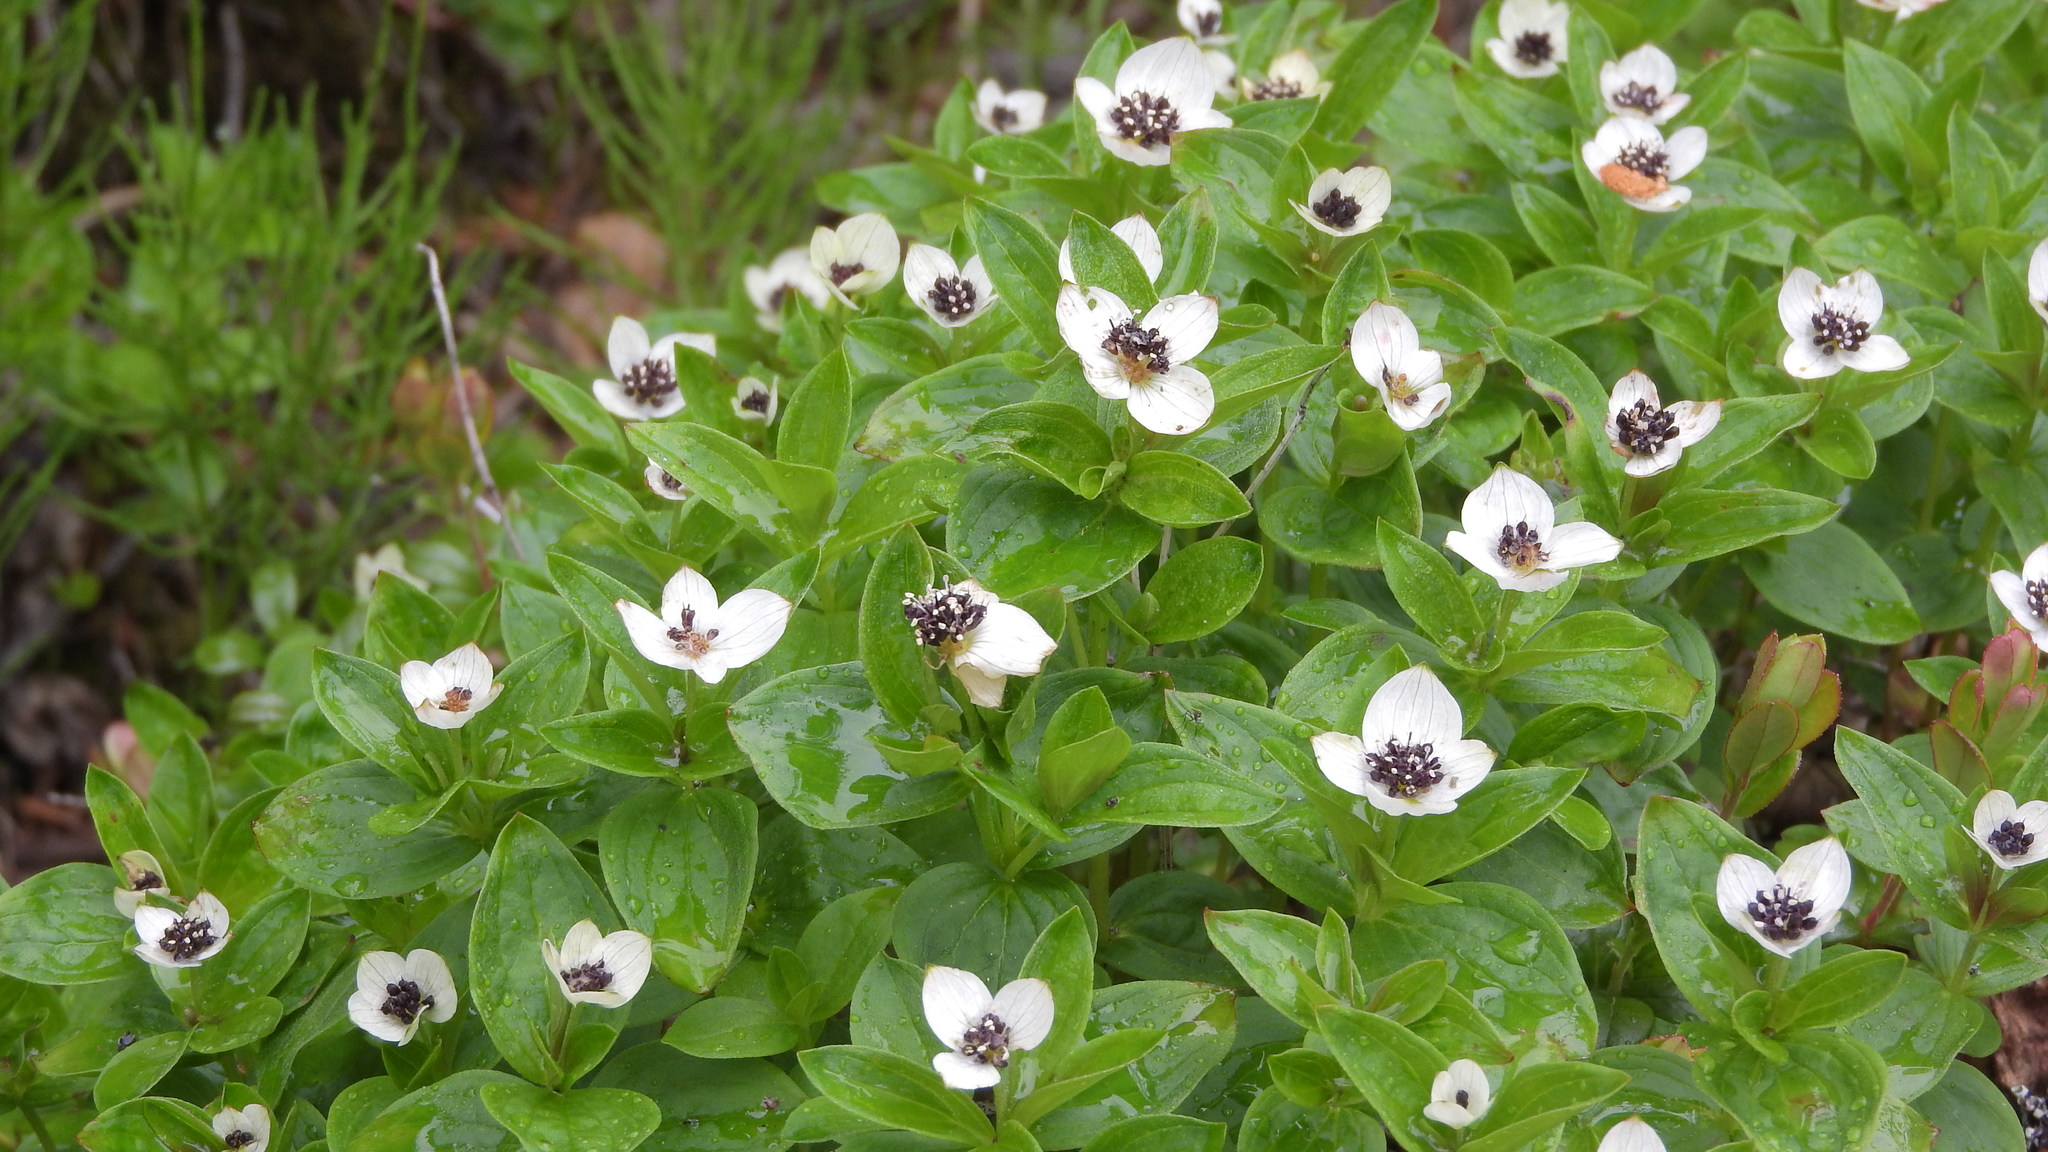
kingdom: Plantae
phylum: Tracheophyta
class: Magnoliopsida
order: Cornales
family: Cornaceae
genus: Cornus
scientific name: Cornus suecica
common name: Dwarf cornel
